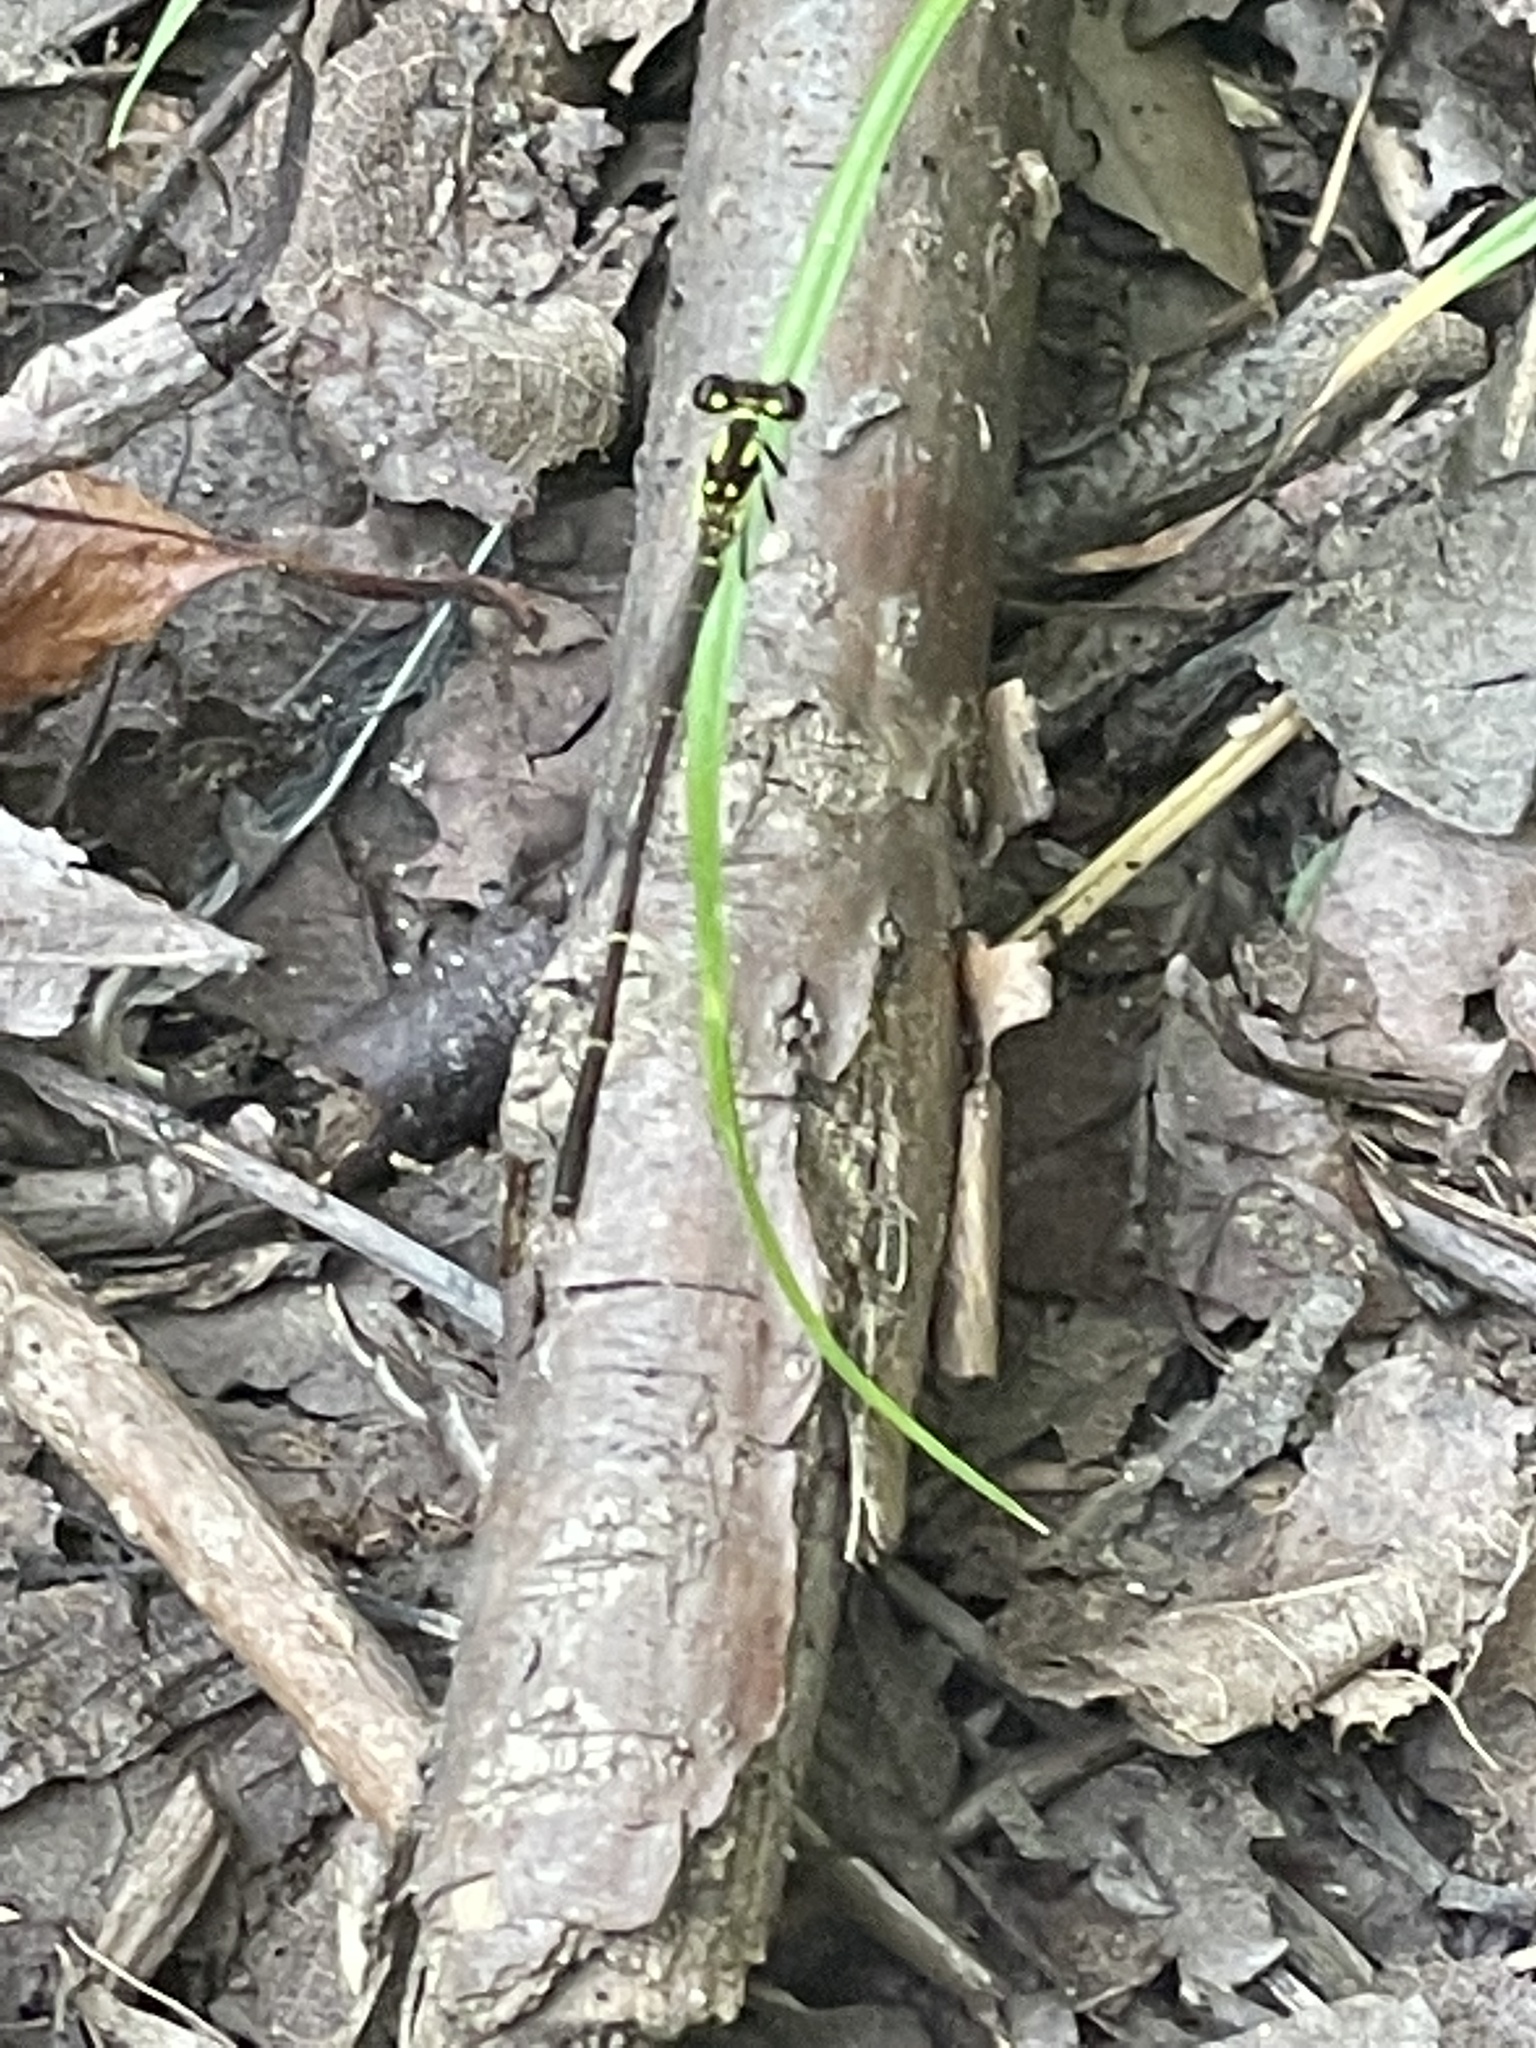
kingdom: Animalia
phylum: Arthropoda
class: Insecta
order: Odonata
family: Coenagrionidae
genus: Ischnura
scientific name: Ischnura posita
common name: Fragile forktail
